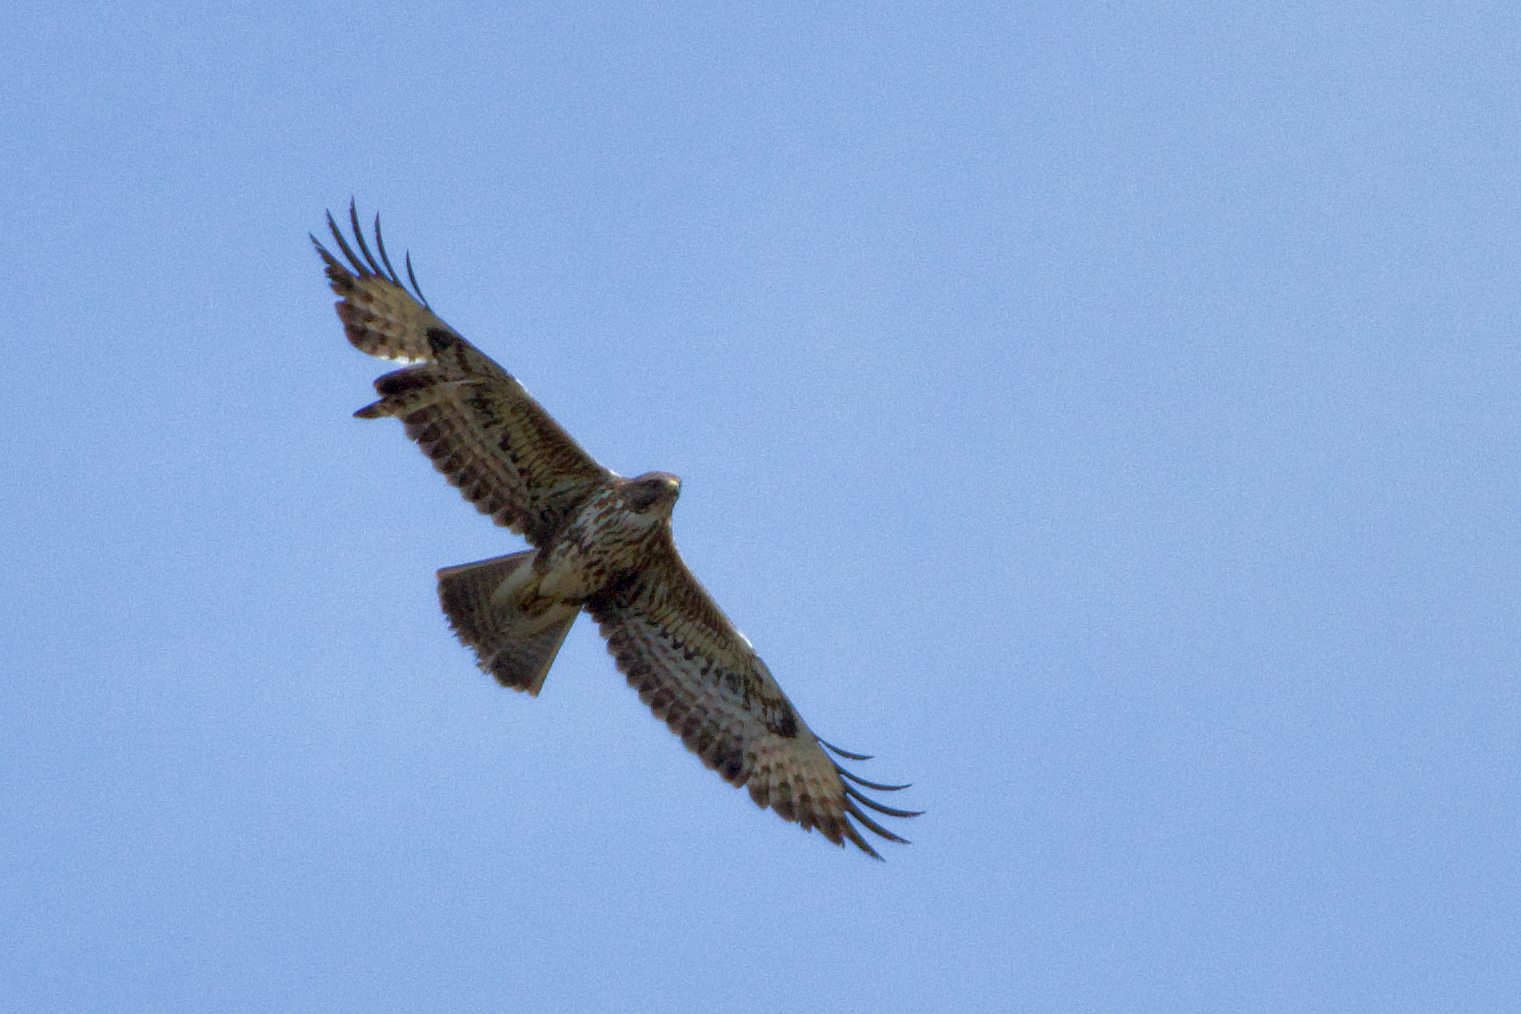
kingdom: Animalia
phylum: Chordata
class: Aves
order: Accipitriformes
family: Accipitridae
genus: Buteo
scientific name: Buteo buteo
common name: Common buzzard
